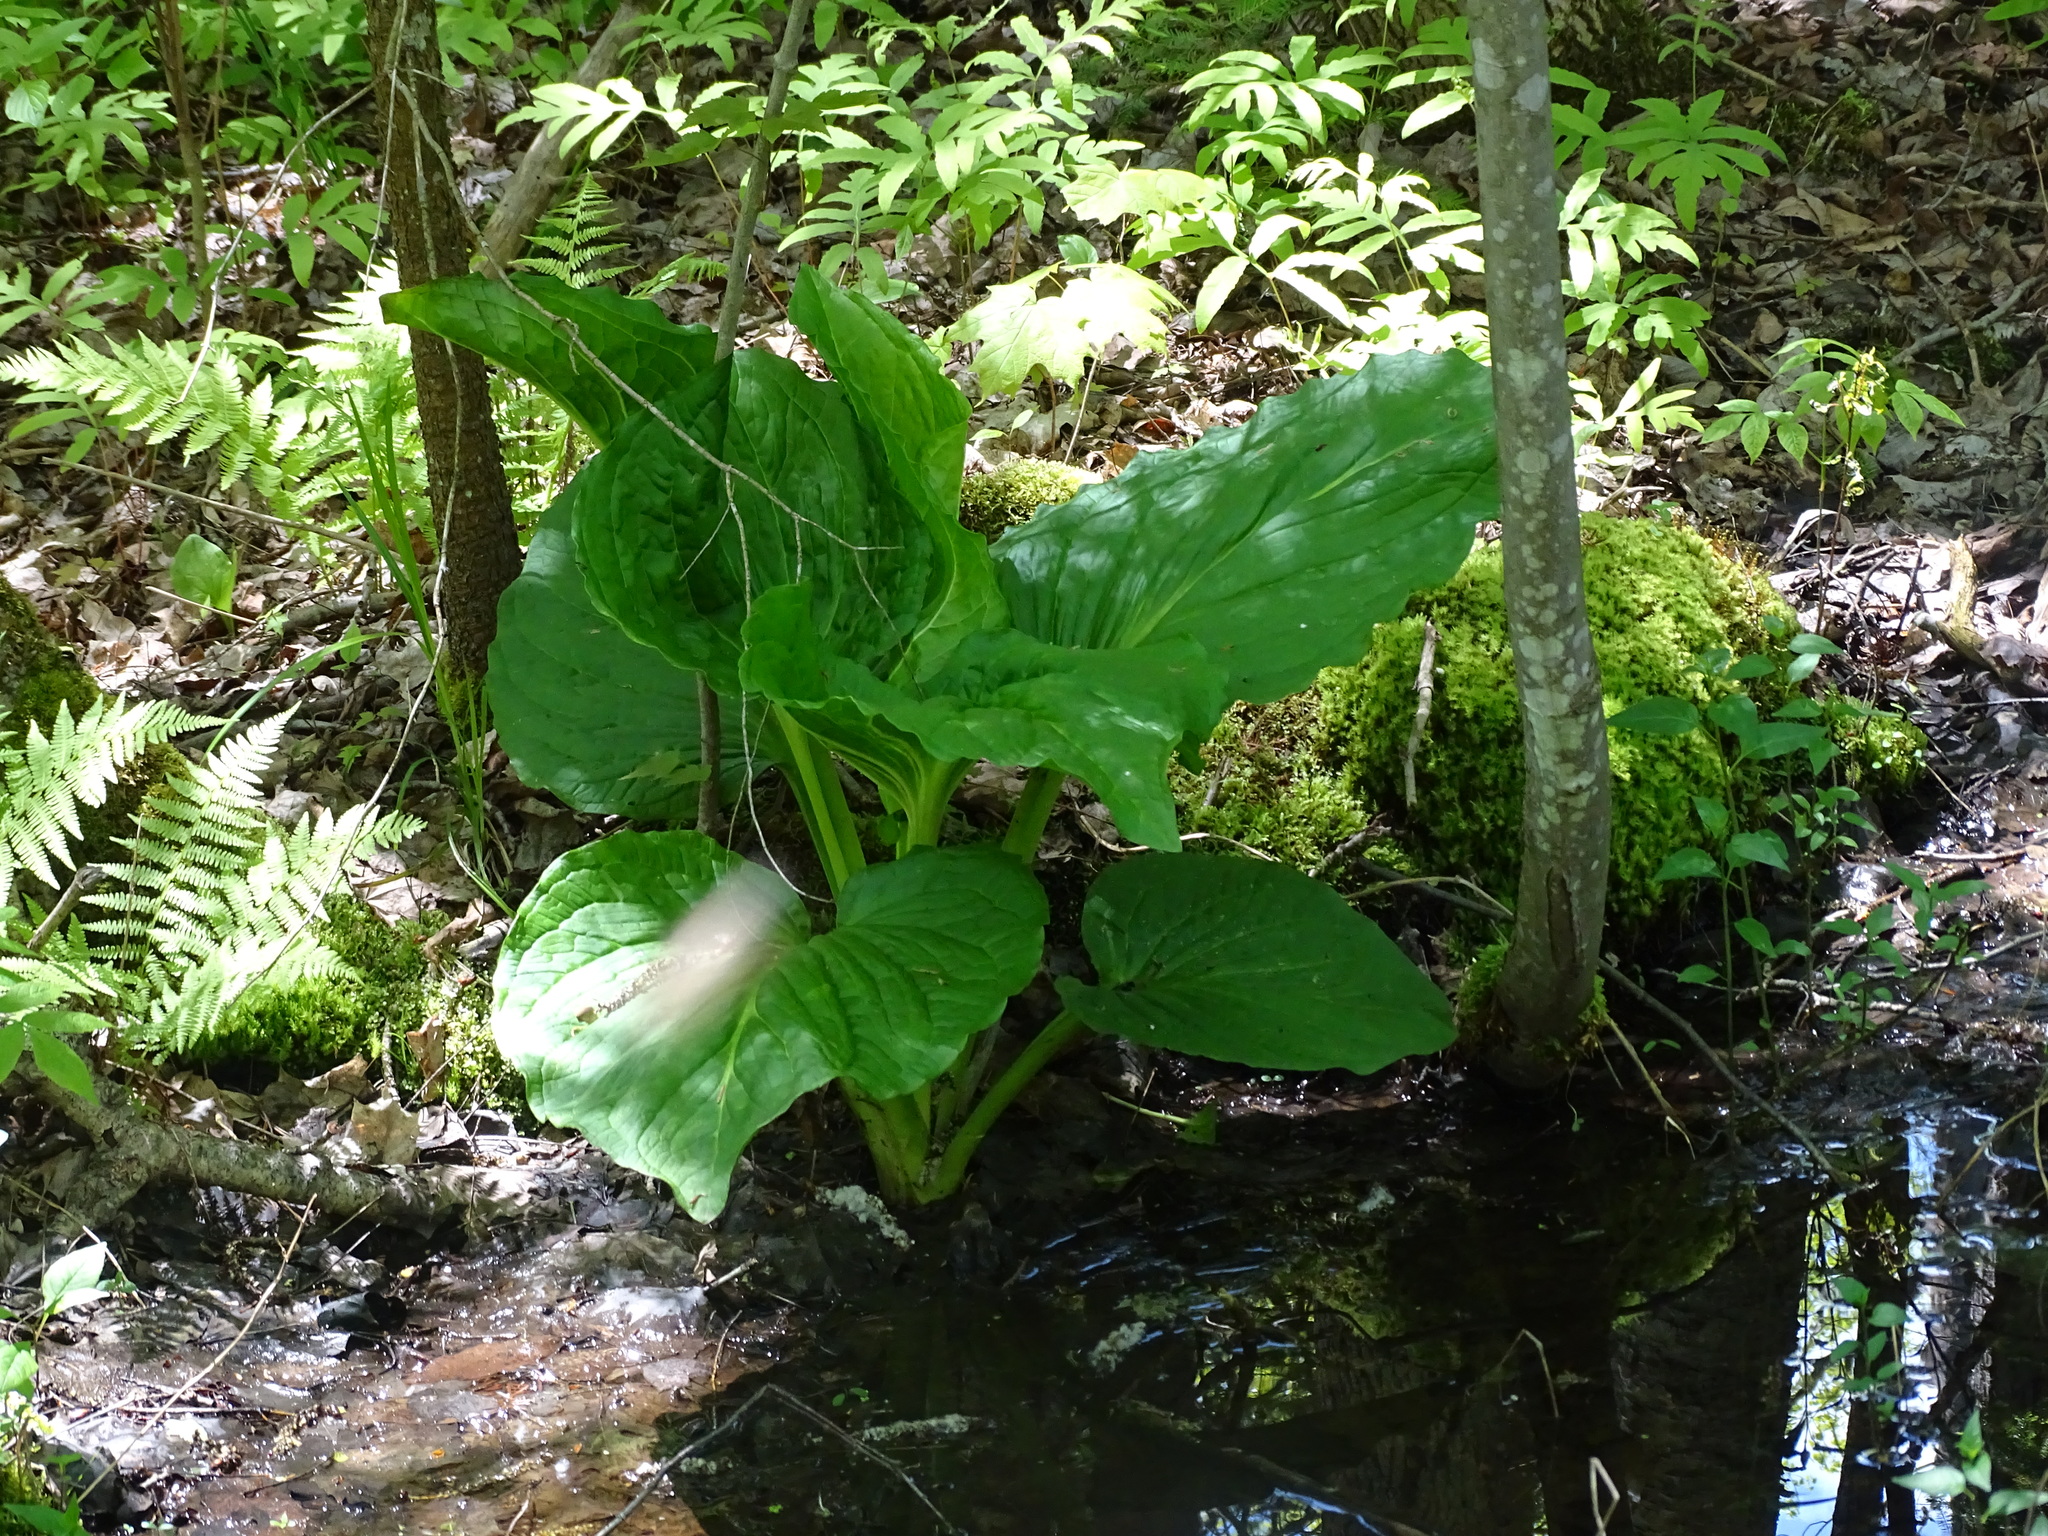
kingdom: Plantae
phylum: Tracheophyta
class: Liliopsida
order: Alismatales
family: Araceae
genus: Symplocarpus
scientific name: Symplocarpus foetidus
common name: Eastern skunk cabbage
